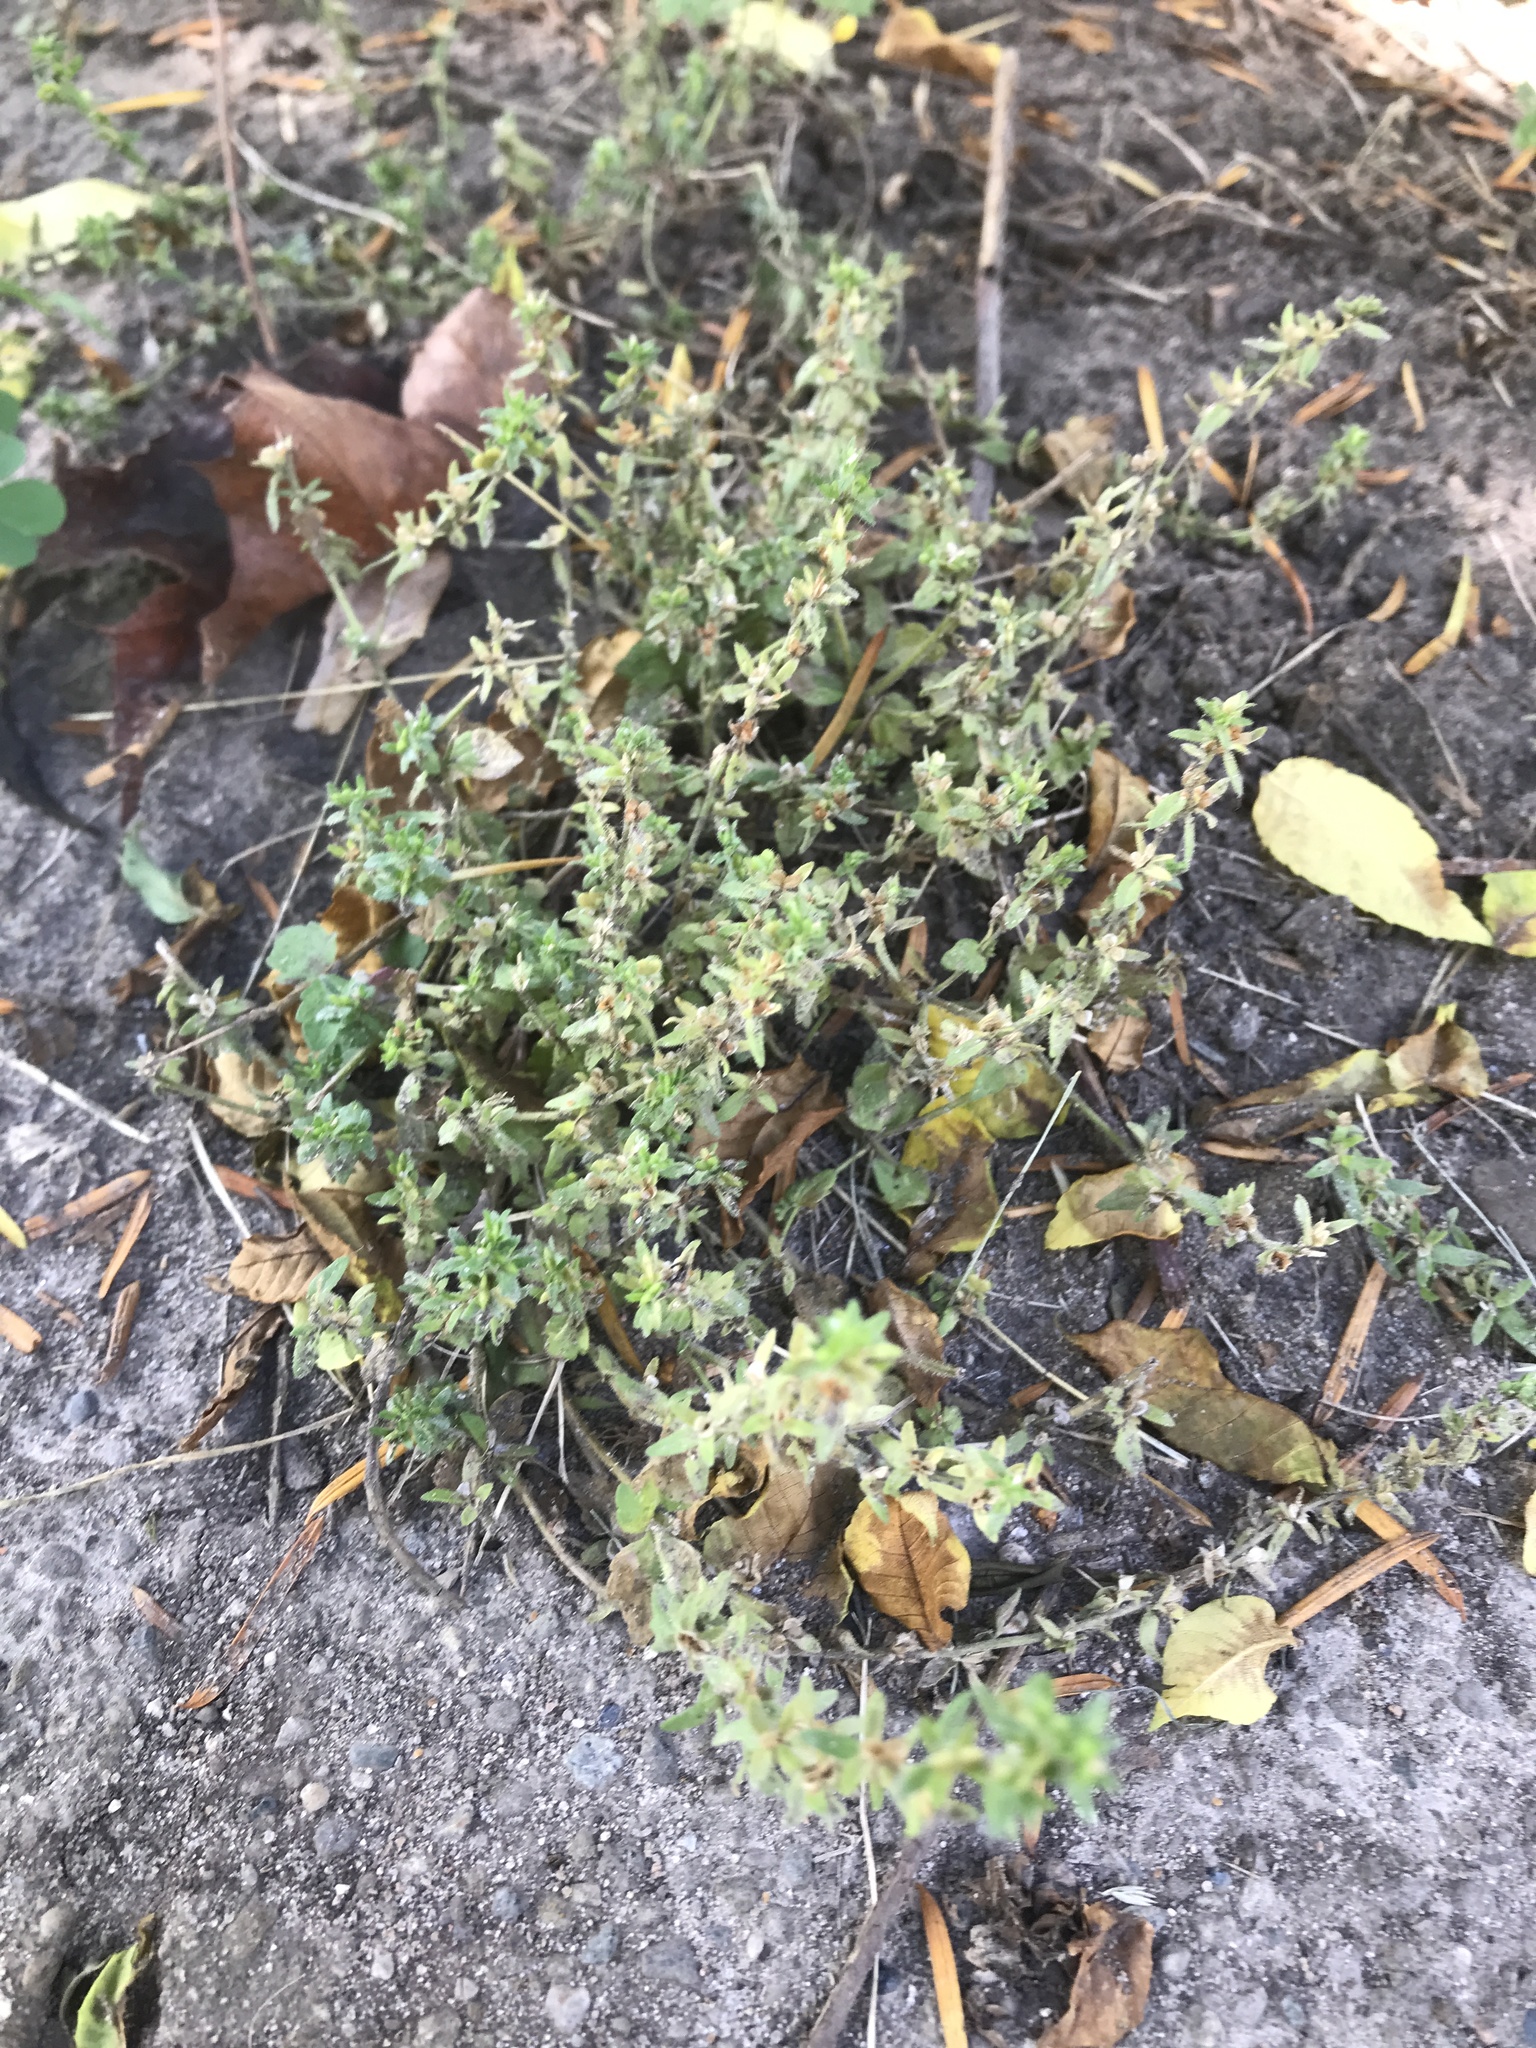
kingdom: Plantae
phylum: Tracheophyta
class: Magnoliopsida
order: Lamiales
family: Plantaginaceae
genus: Veronica
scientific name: Veronica arvensis
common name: Corn speedwell
